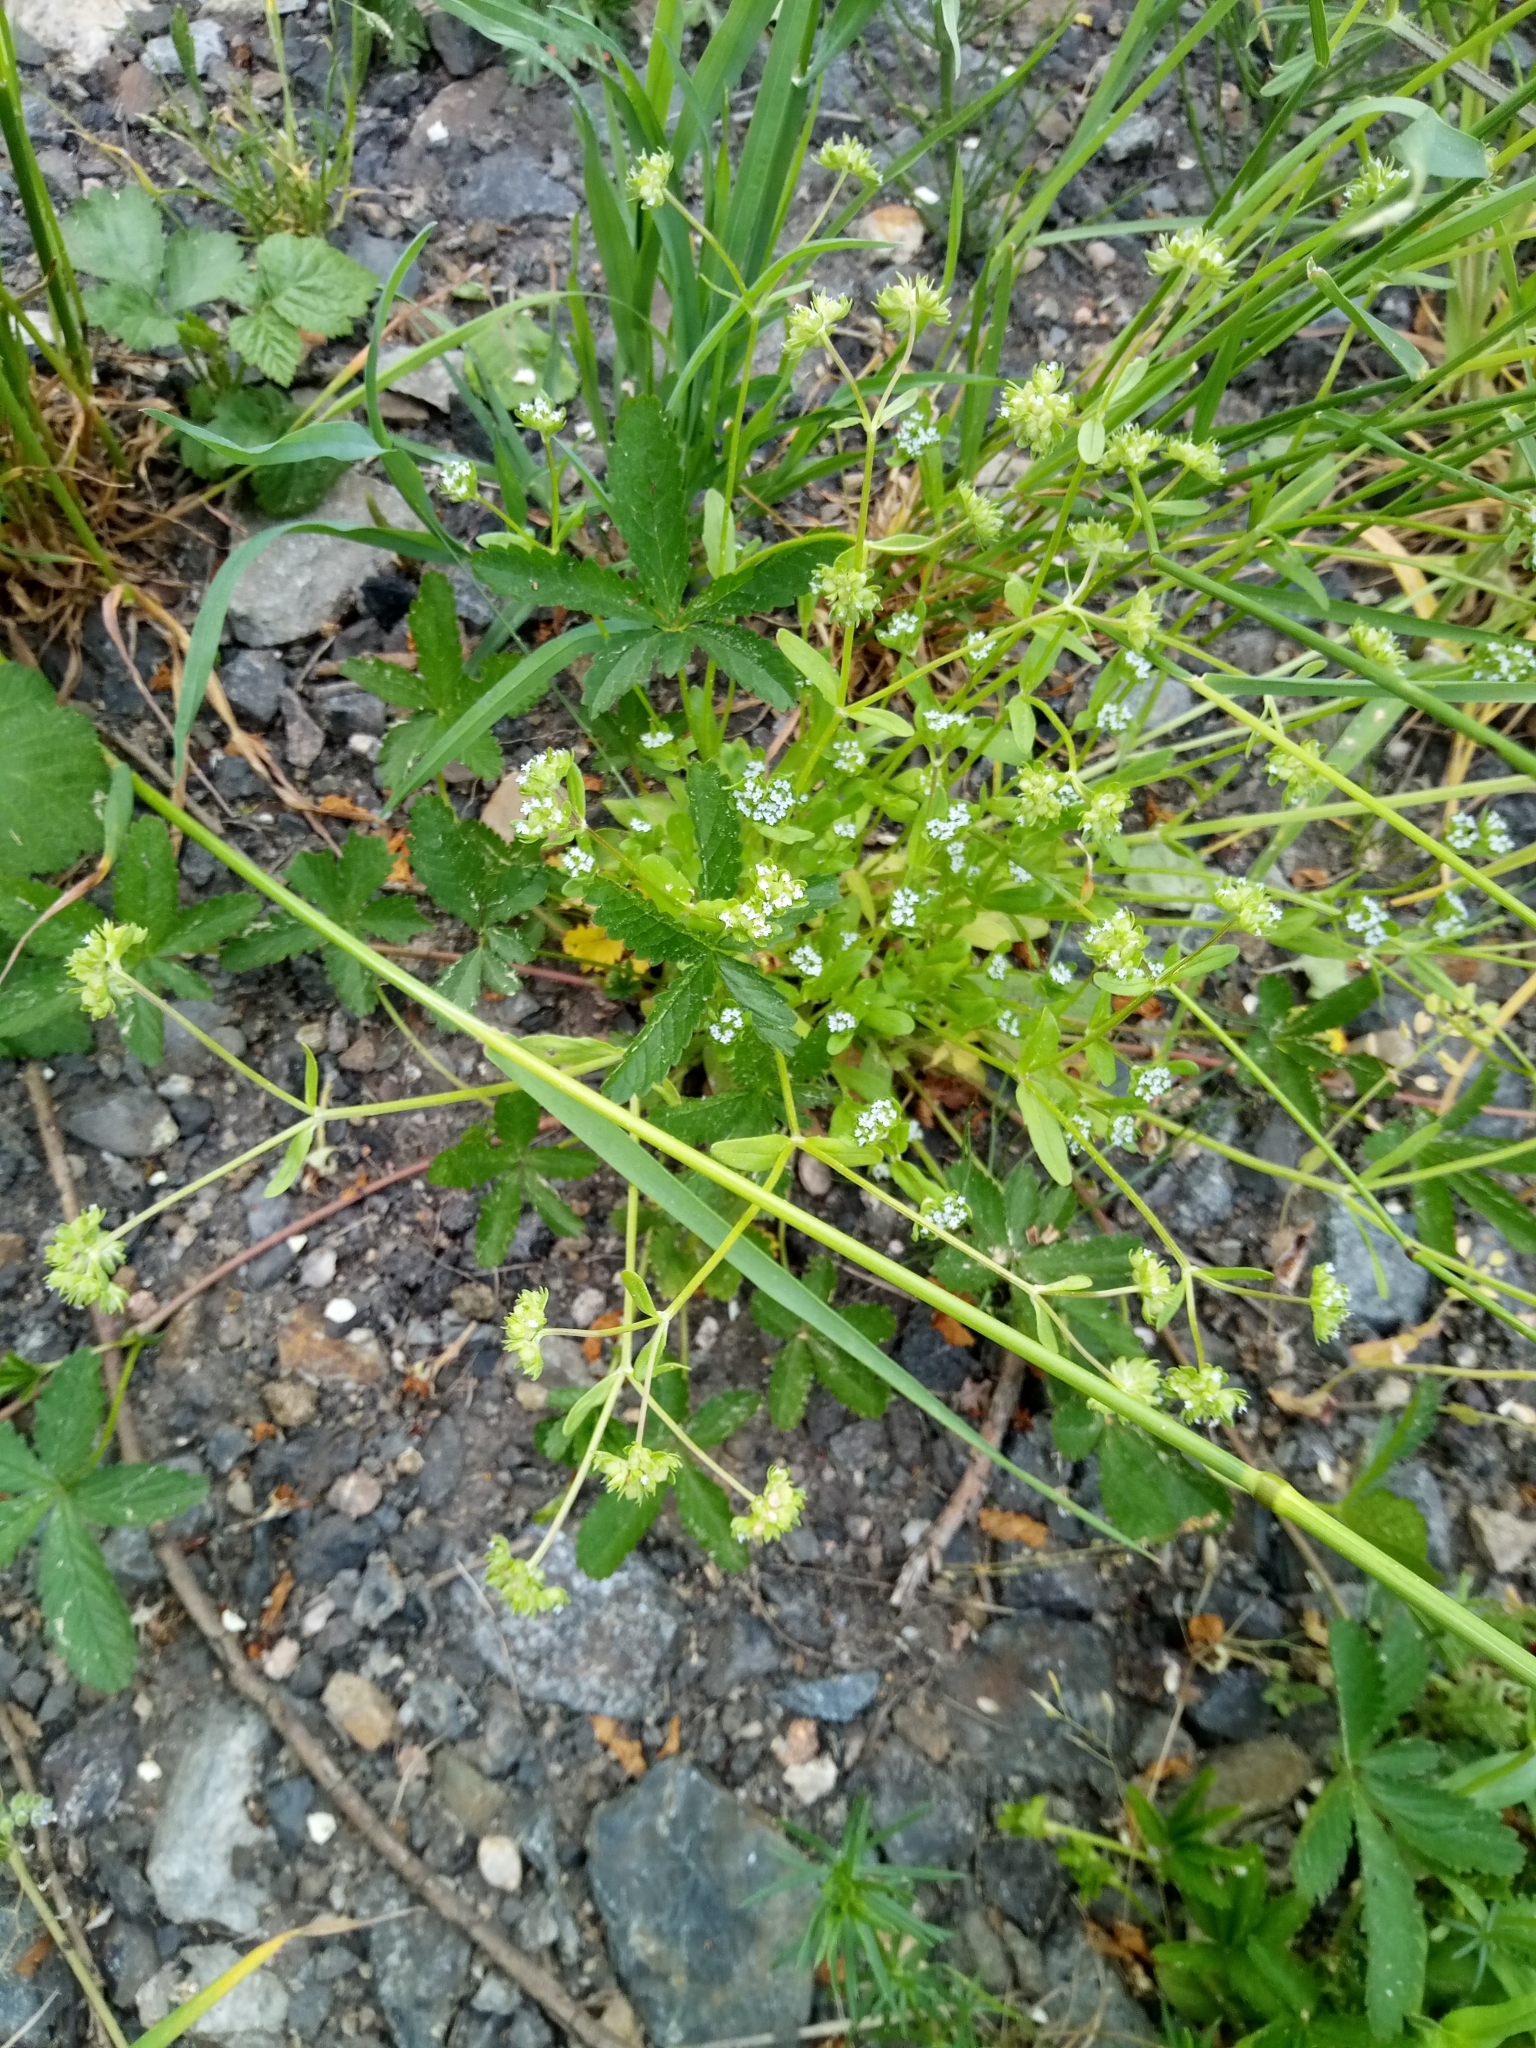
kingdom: Plantae
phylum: Tracheophyta
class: Magnoliopsida
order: Dipsacales
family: Caprifoliaceae
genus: Valerianella
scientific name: Valerianella locusta
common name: Common cornsalad
